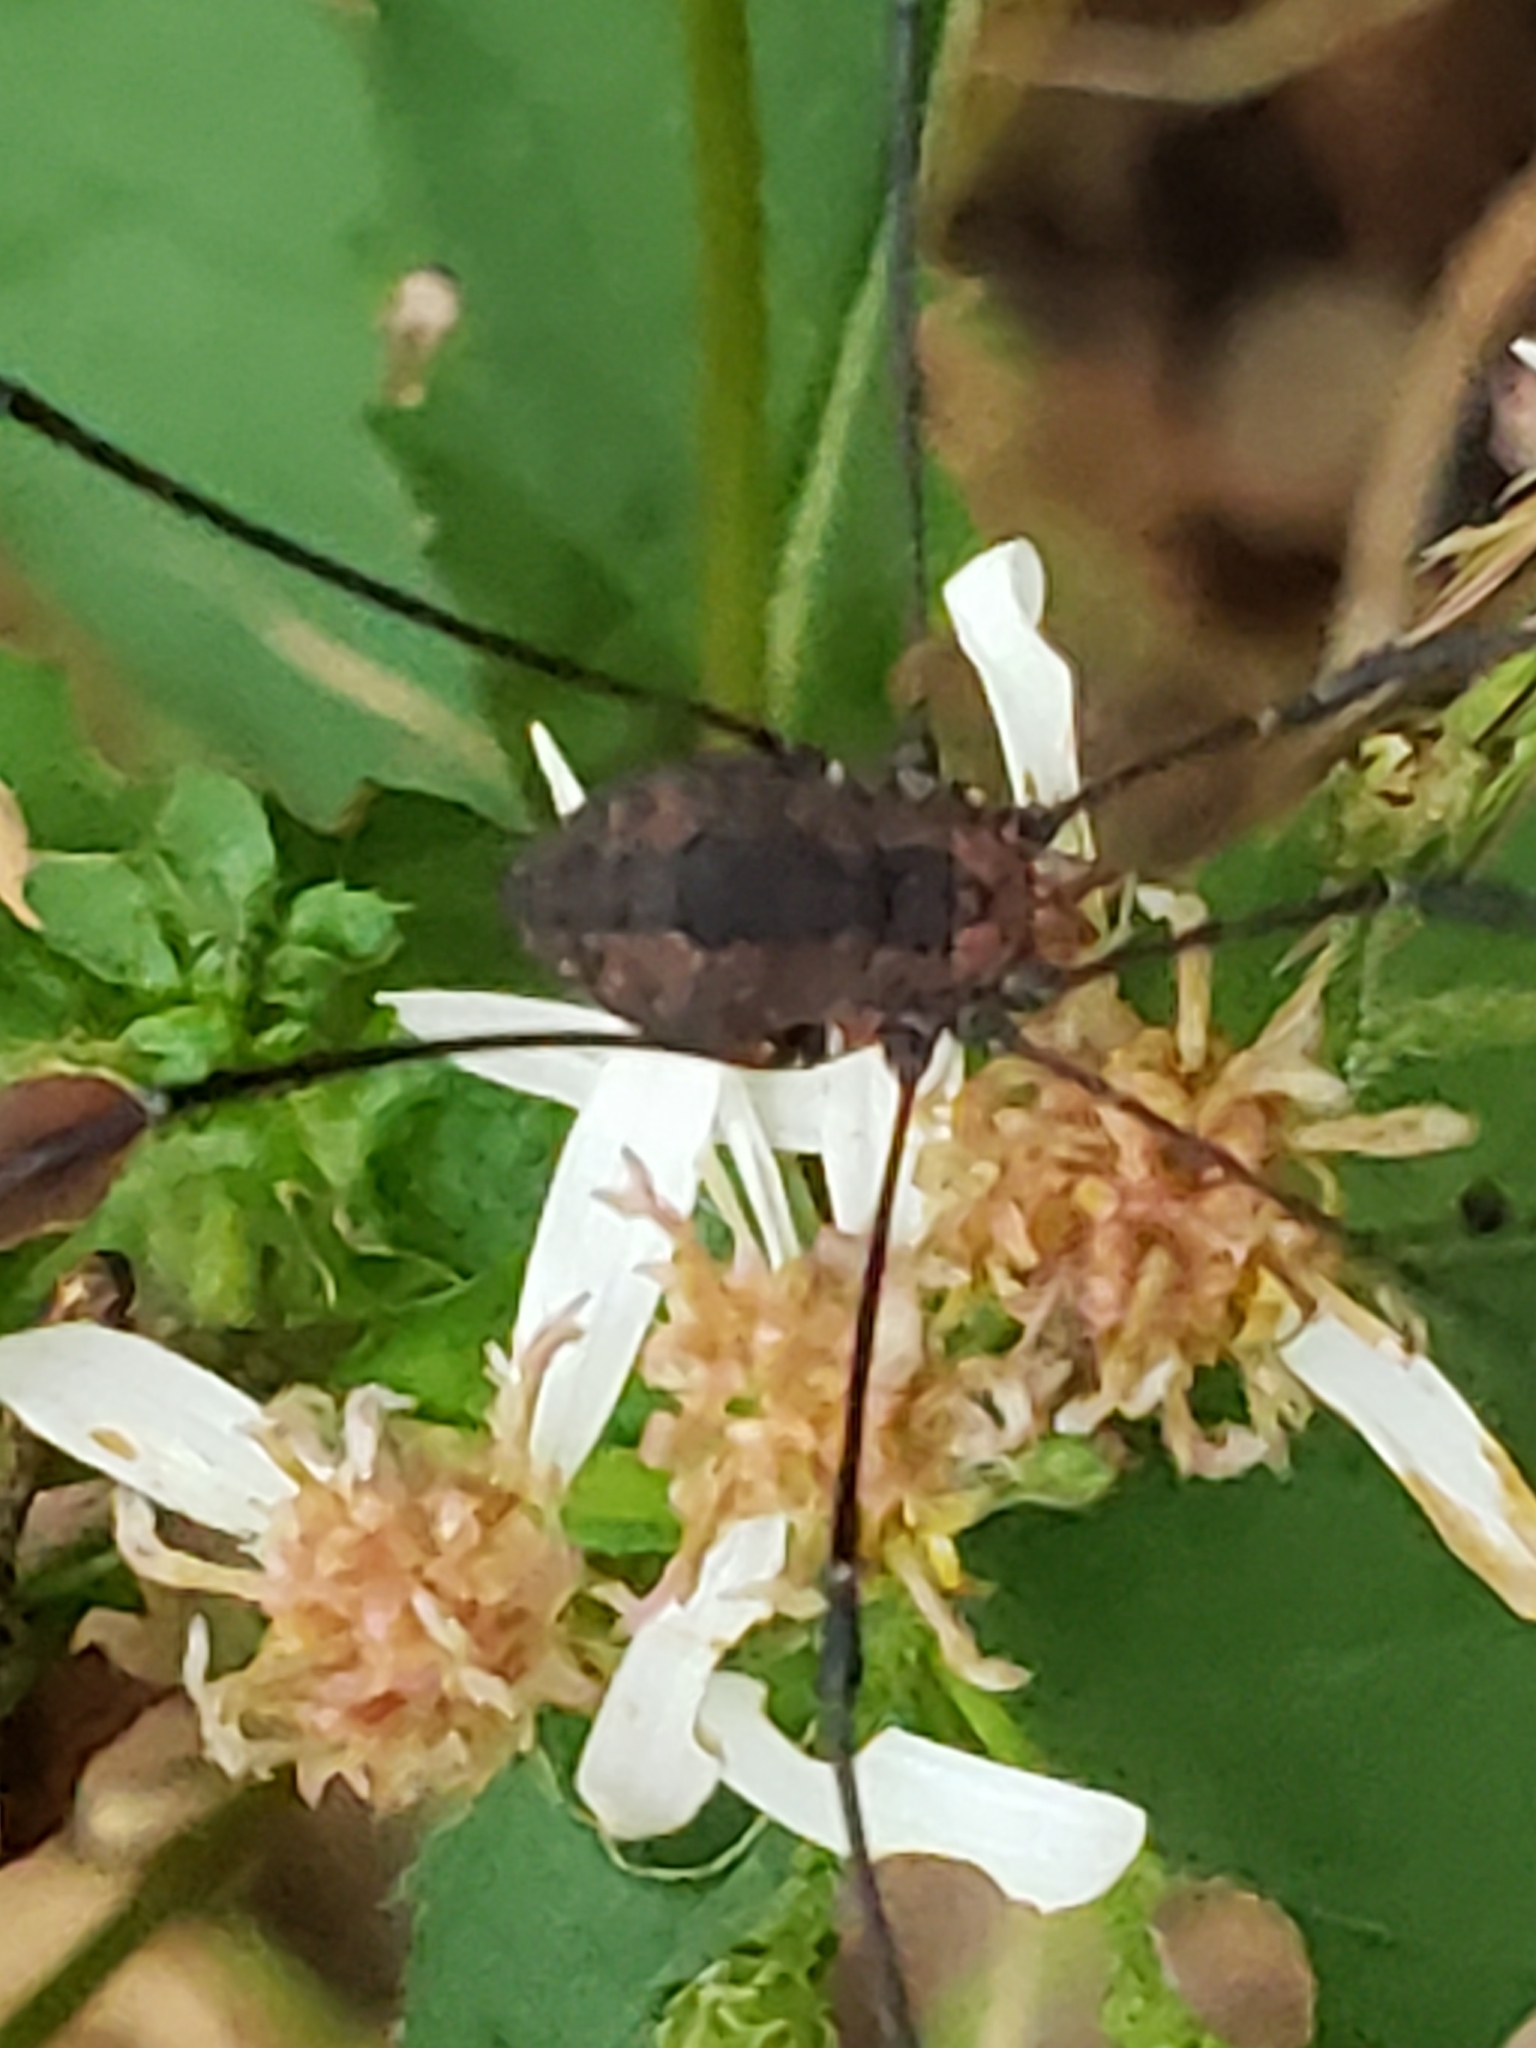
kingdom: Animalia
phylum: Arthropoda
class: Arachnida
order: Opiliones
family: Sclerosomatidae
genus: Leiobunum
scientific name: Leiobunum vittatum
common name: Eastern harvestman
